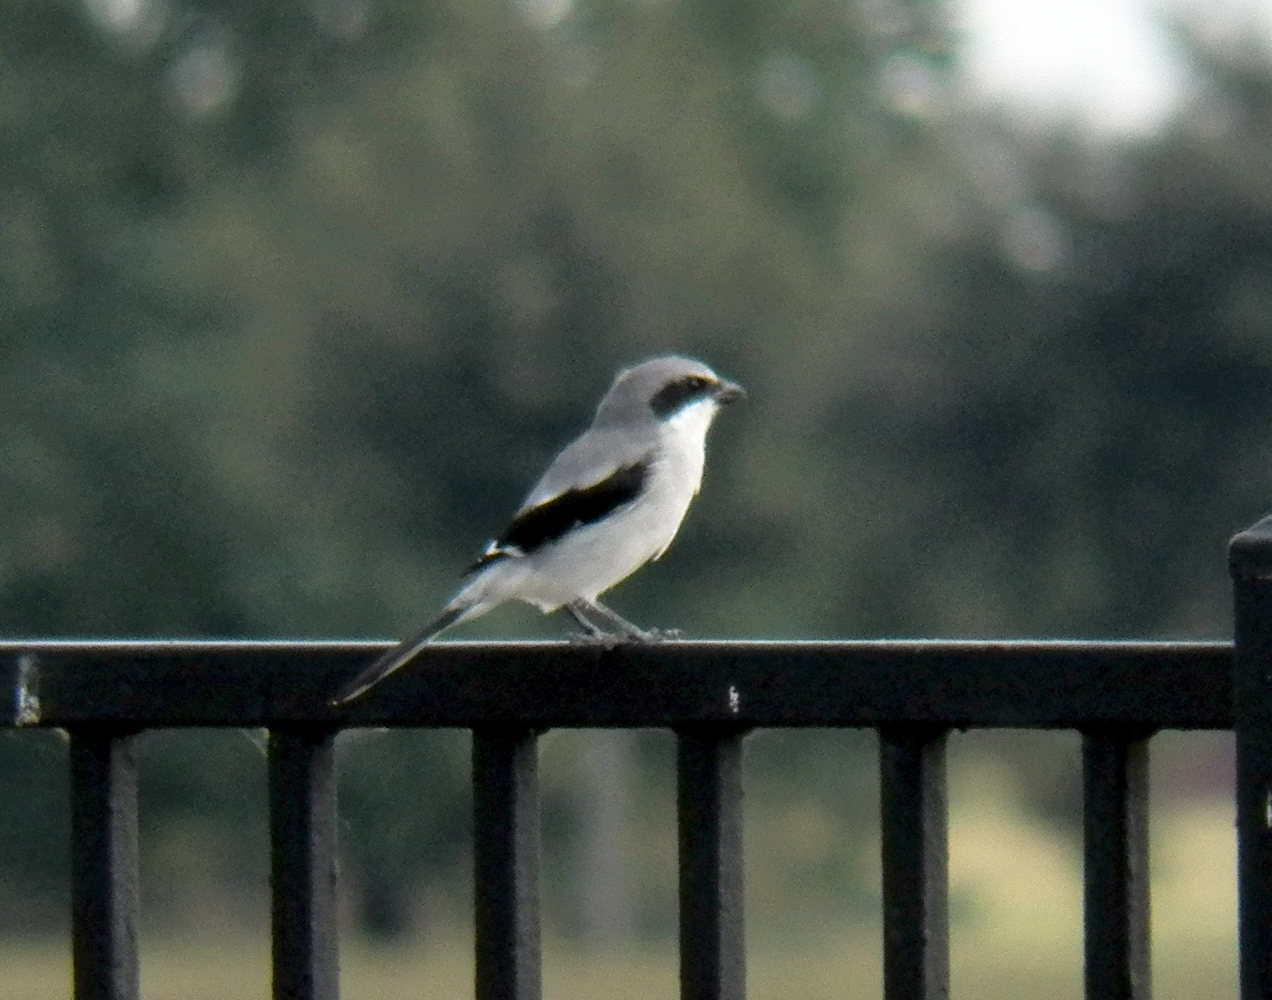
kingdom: Animalia
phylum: Chordata
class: Aves
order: Passeriformes
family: Laniidae
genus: Lanius
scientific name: Lanius ludovicianus
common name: Loggerhead shrike
